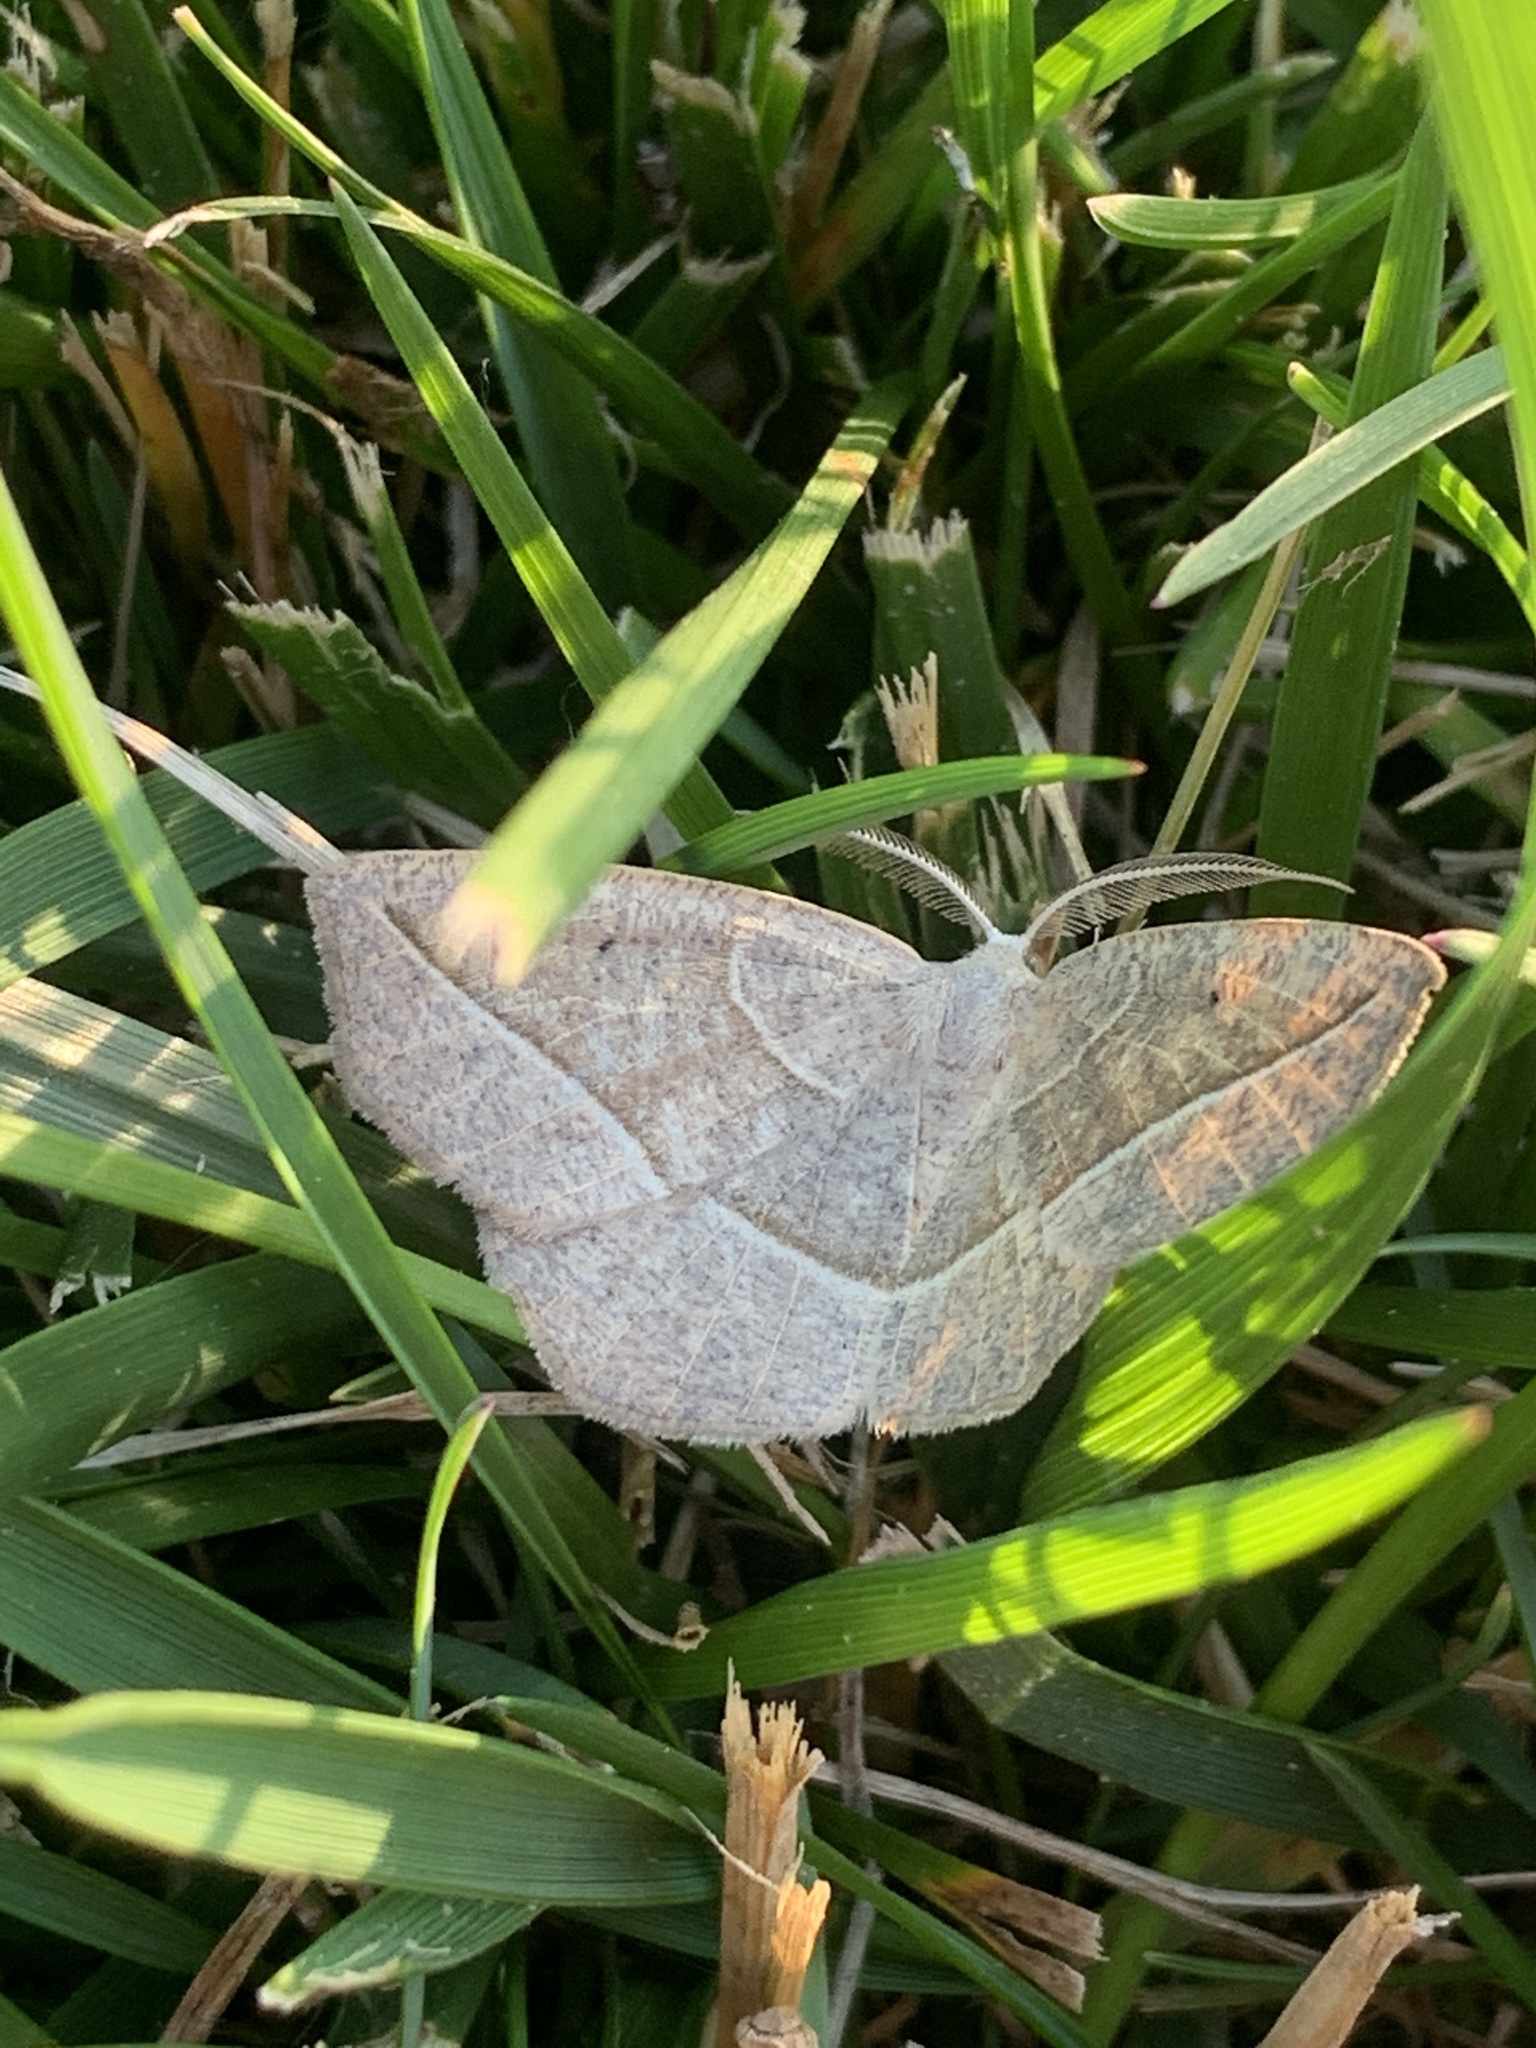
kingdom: Animalia
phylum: Arthropoda
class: Insecta
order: Lepidoptera
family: Geometridae
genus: Eusarca
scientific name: Eusarca confusaria
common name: Confused eusarca
